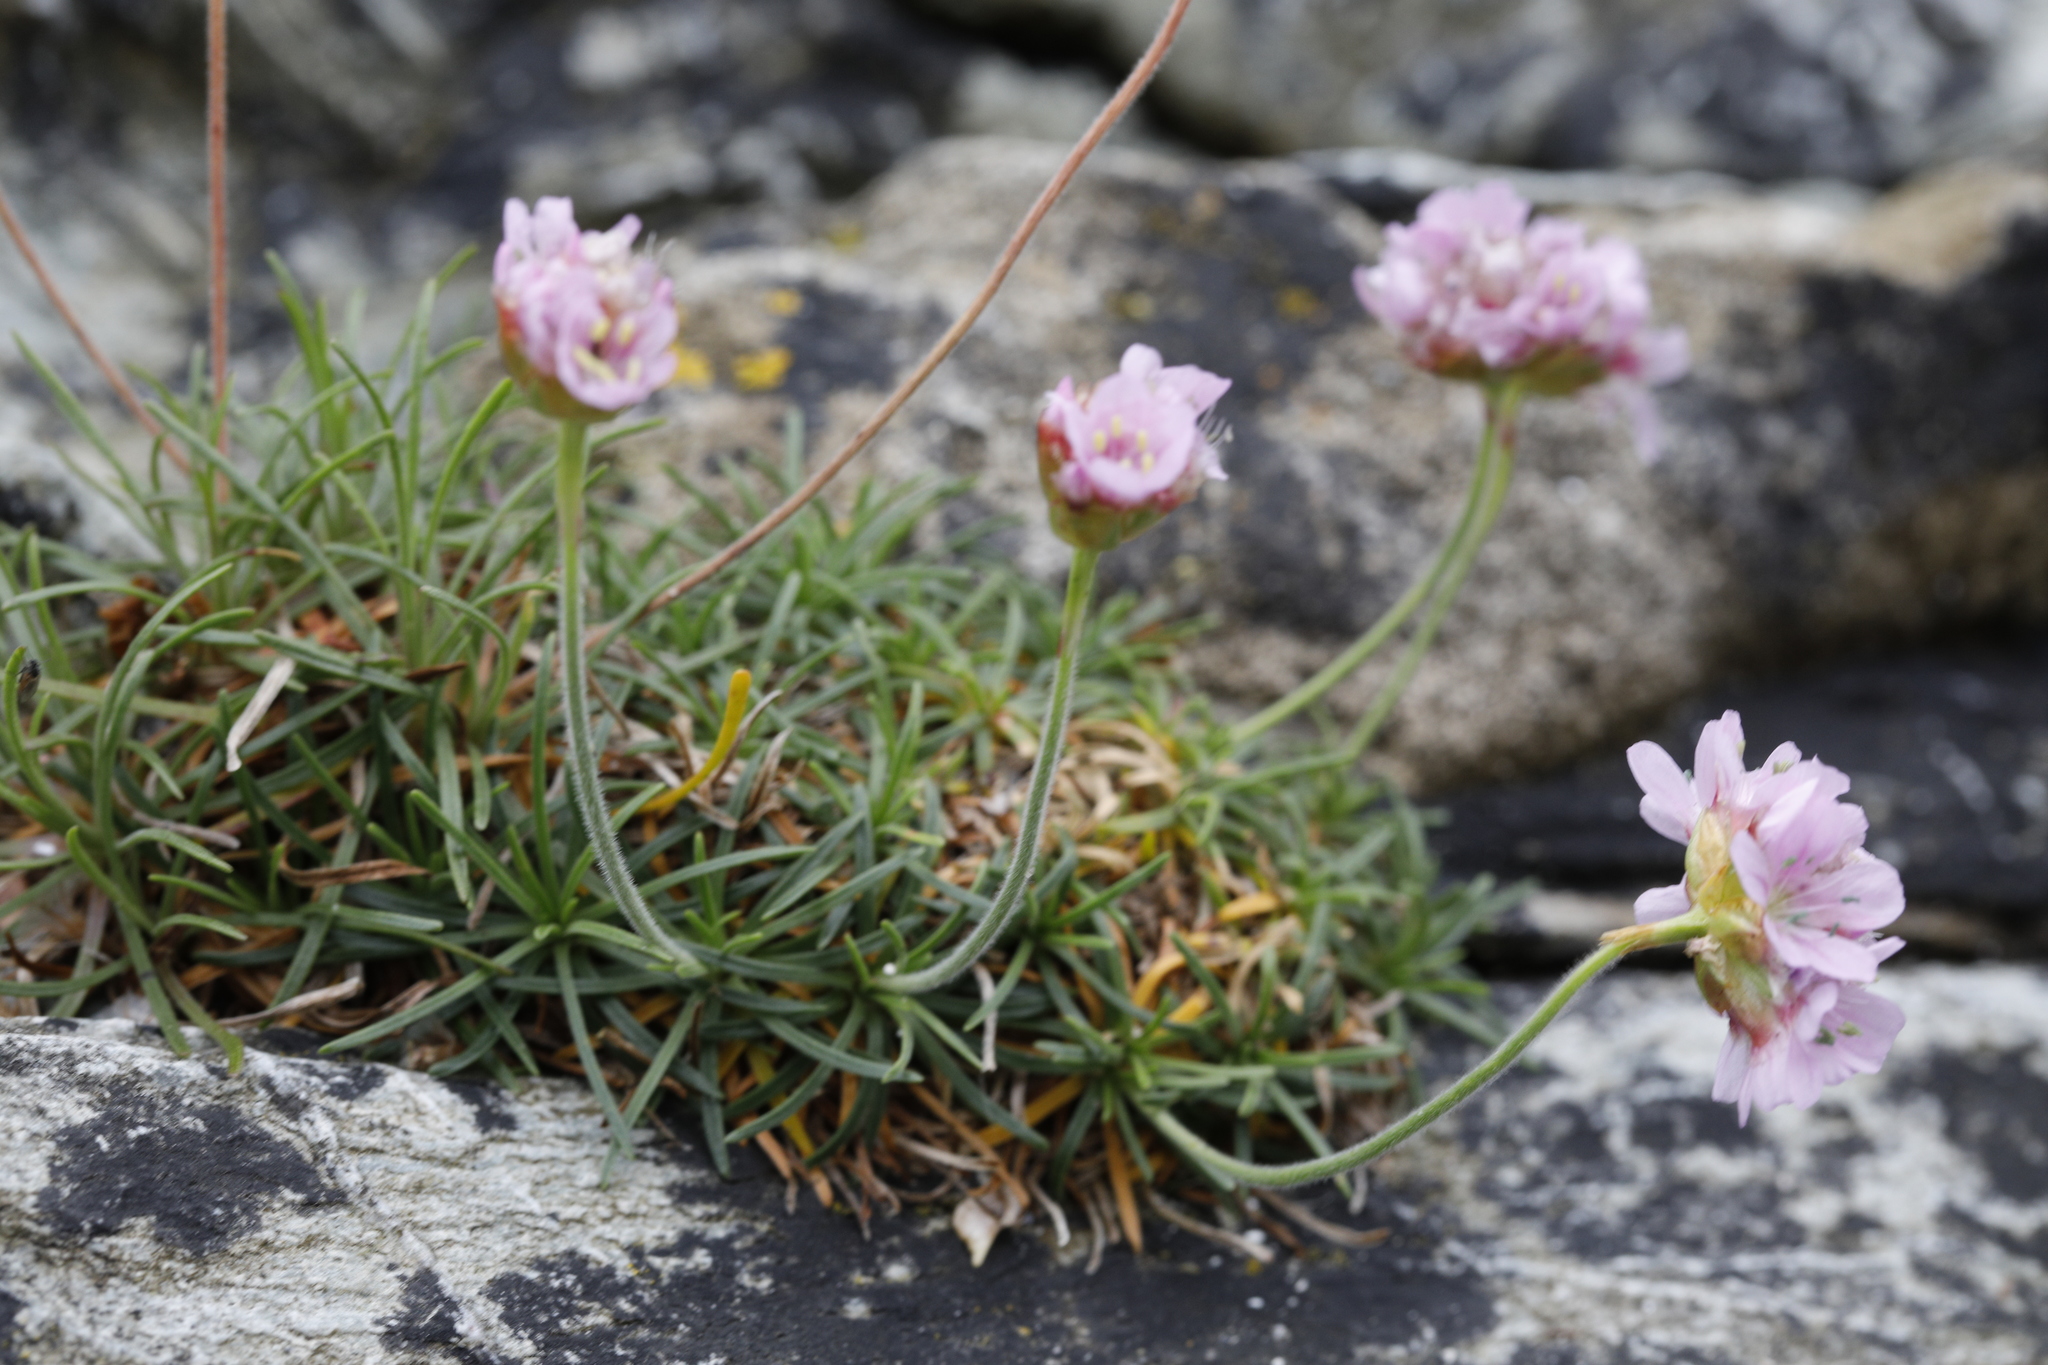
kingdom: Plantae
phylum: Tracheophyta
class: Magnoliopsida
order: Caryophyllales
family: Plumbaginaceae
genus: Armeria
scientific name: Armeria maritima
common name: Thrift
